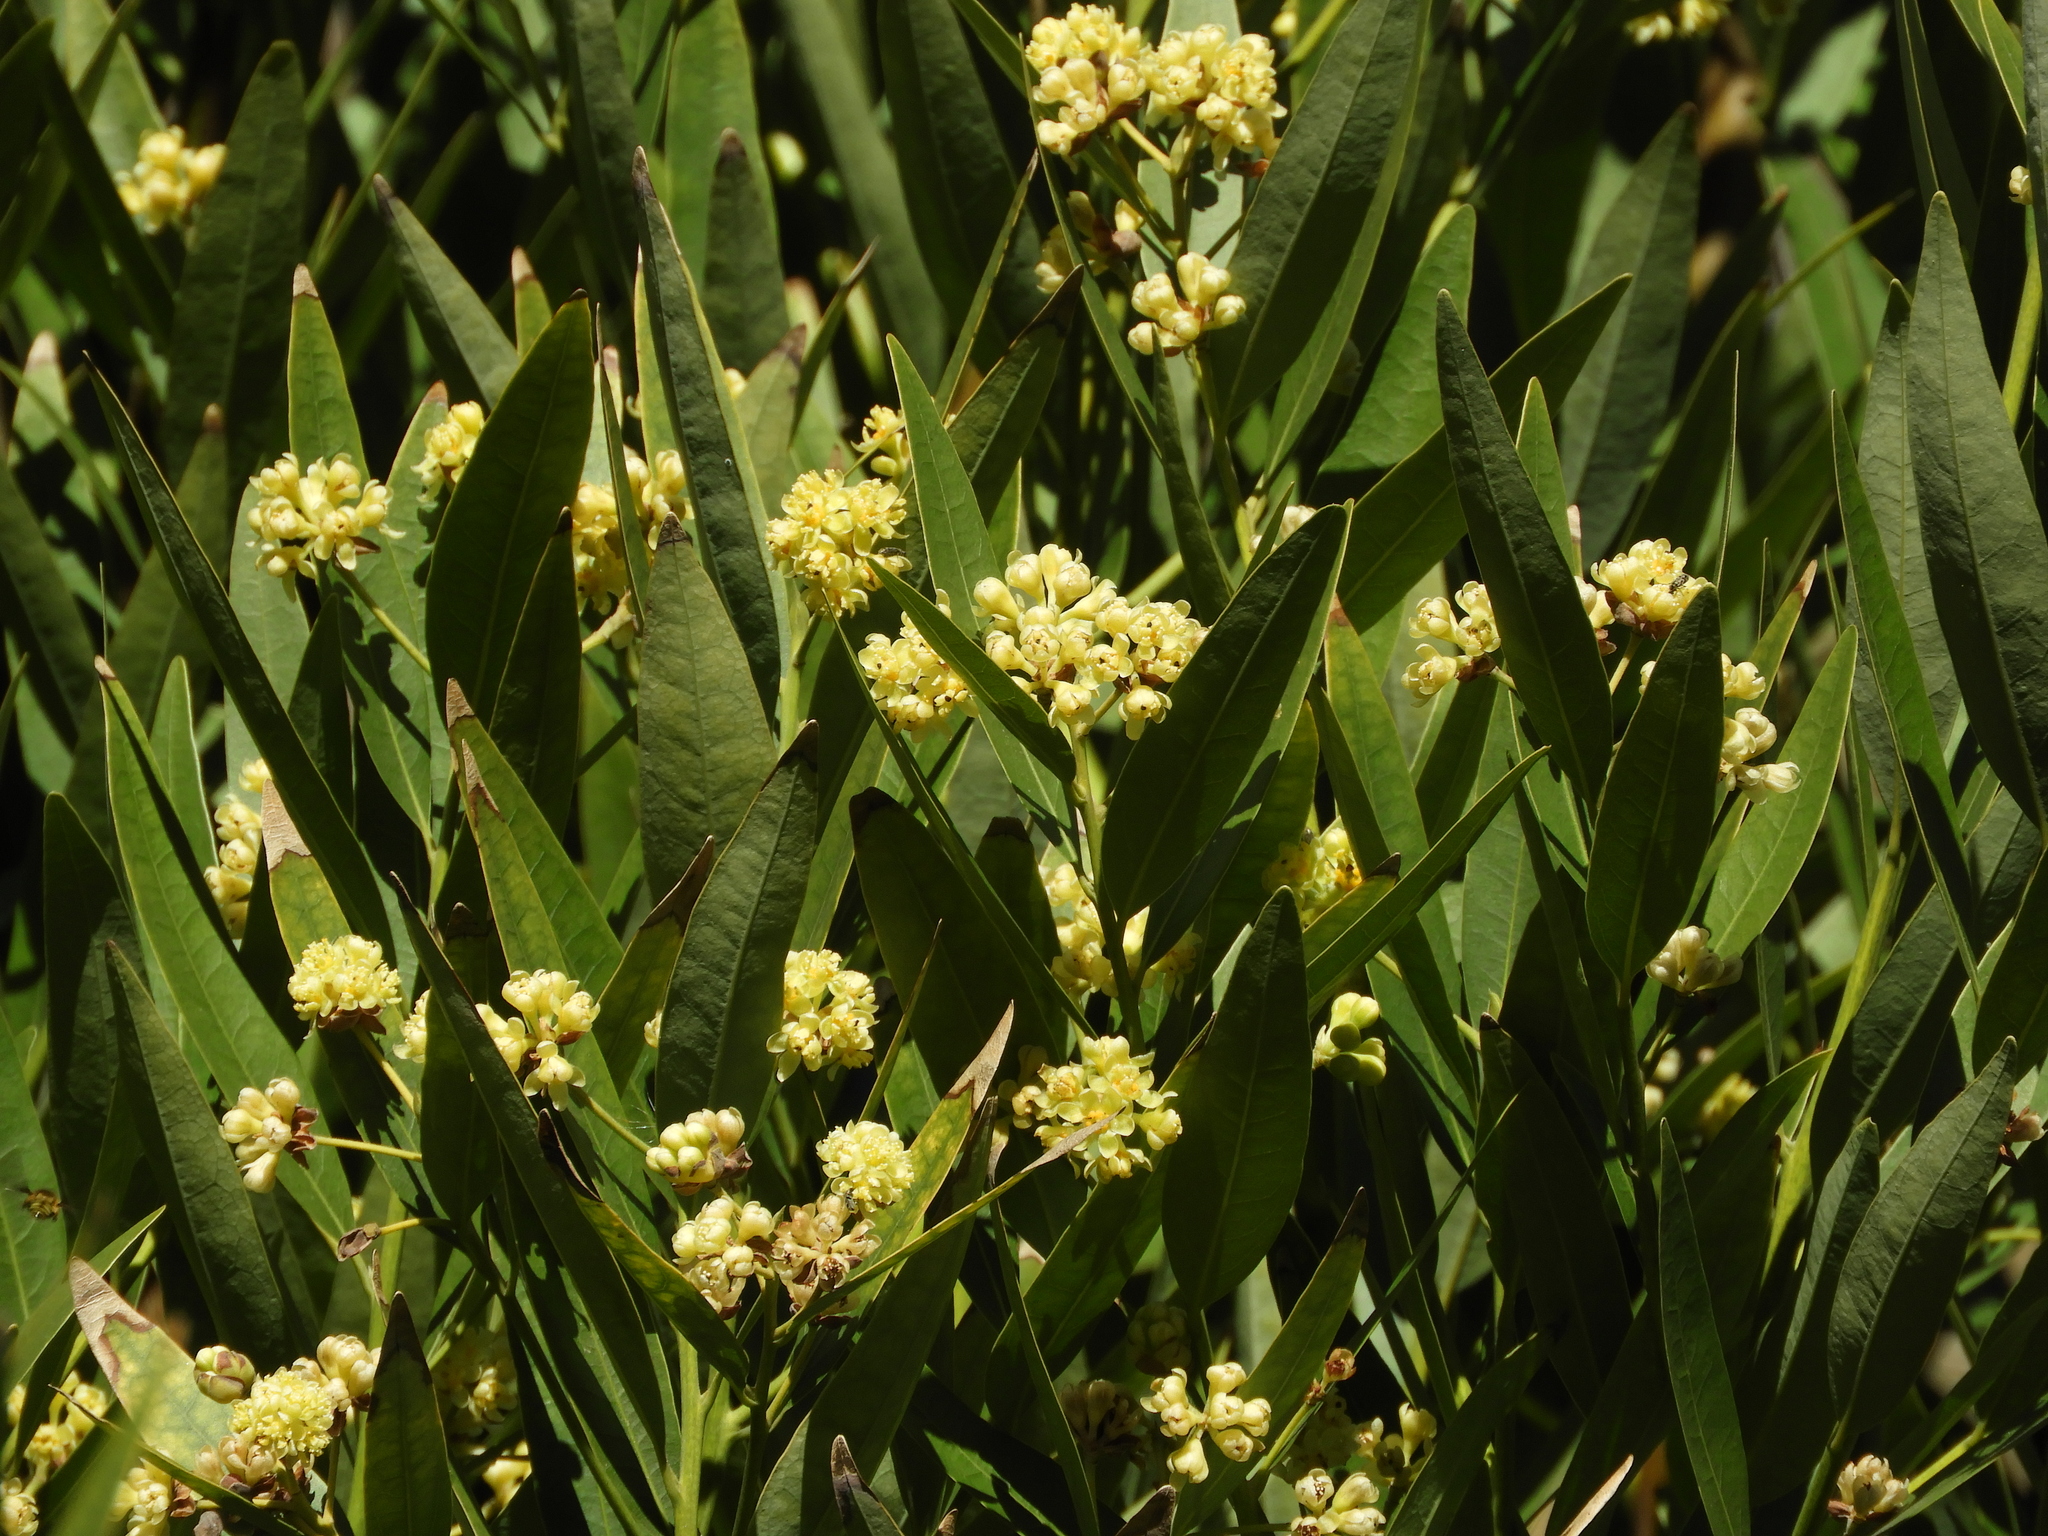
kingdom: Plantae
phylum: Tracheophyta
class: Magnoliopsida
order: Laurales
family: Lauraceae
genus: Umbellularia
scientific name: Umbellularia californica
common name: California bay
